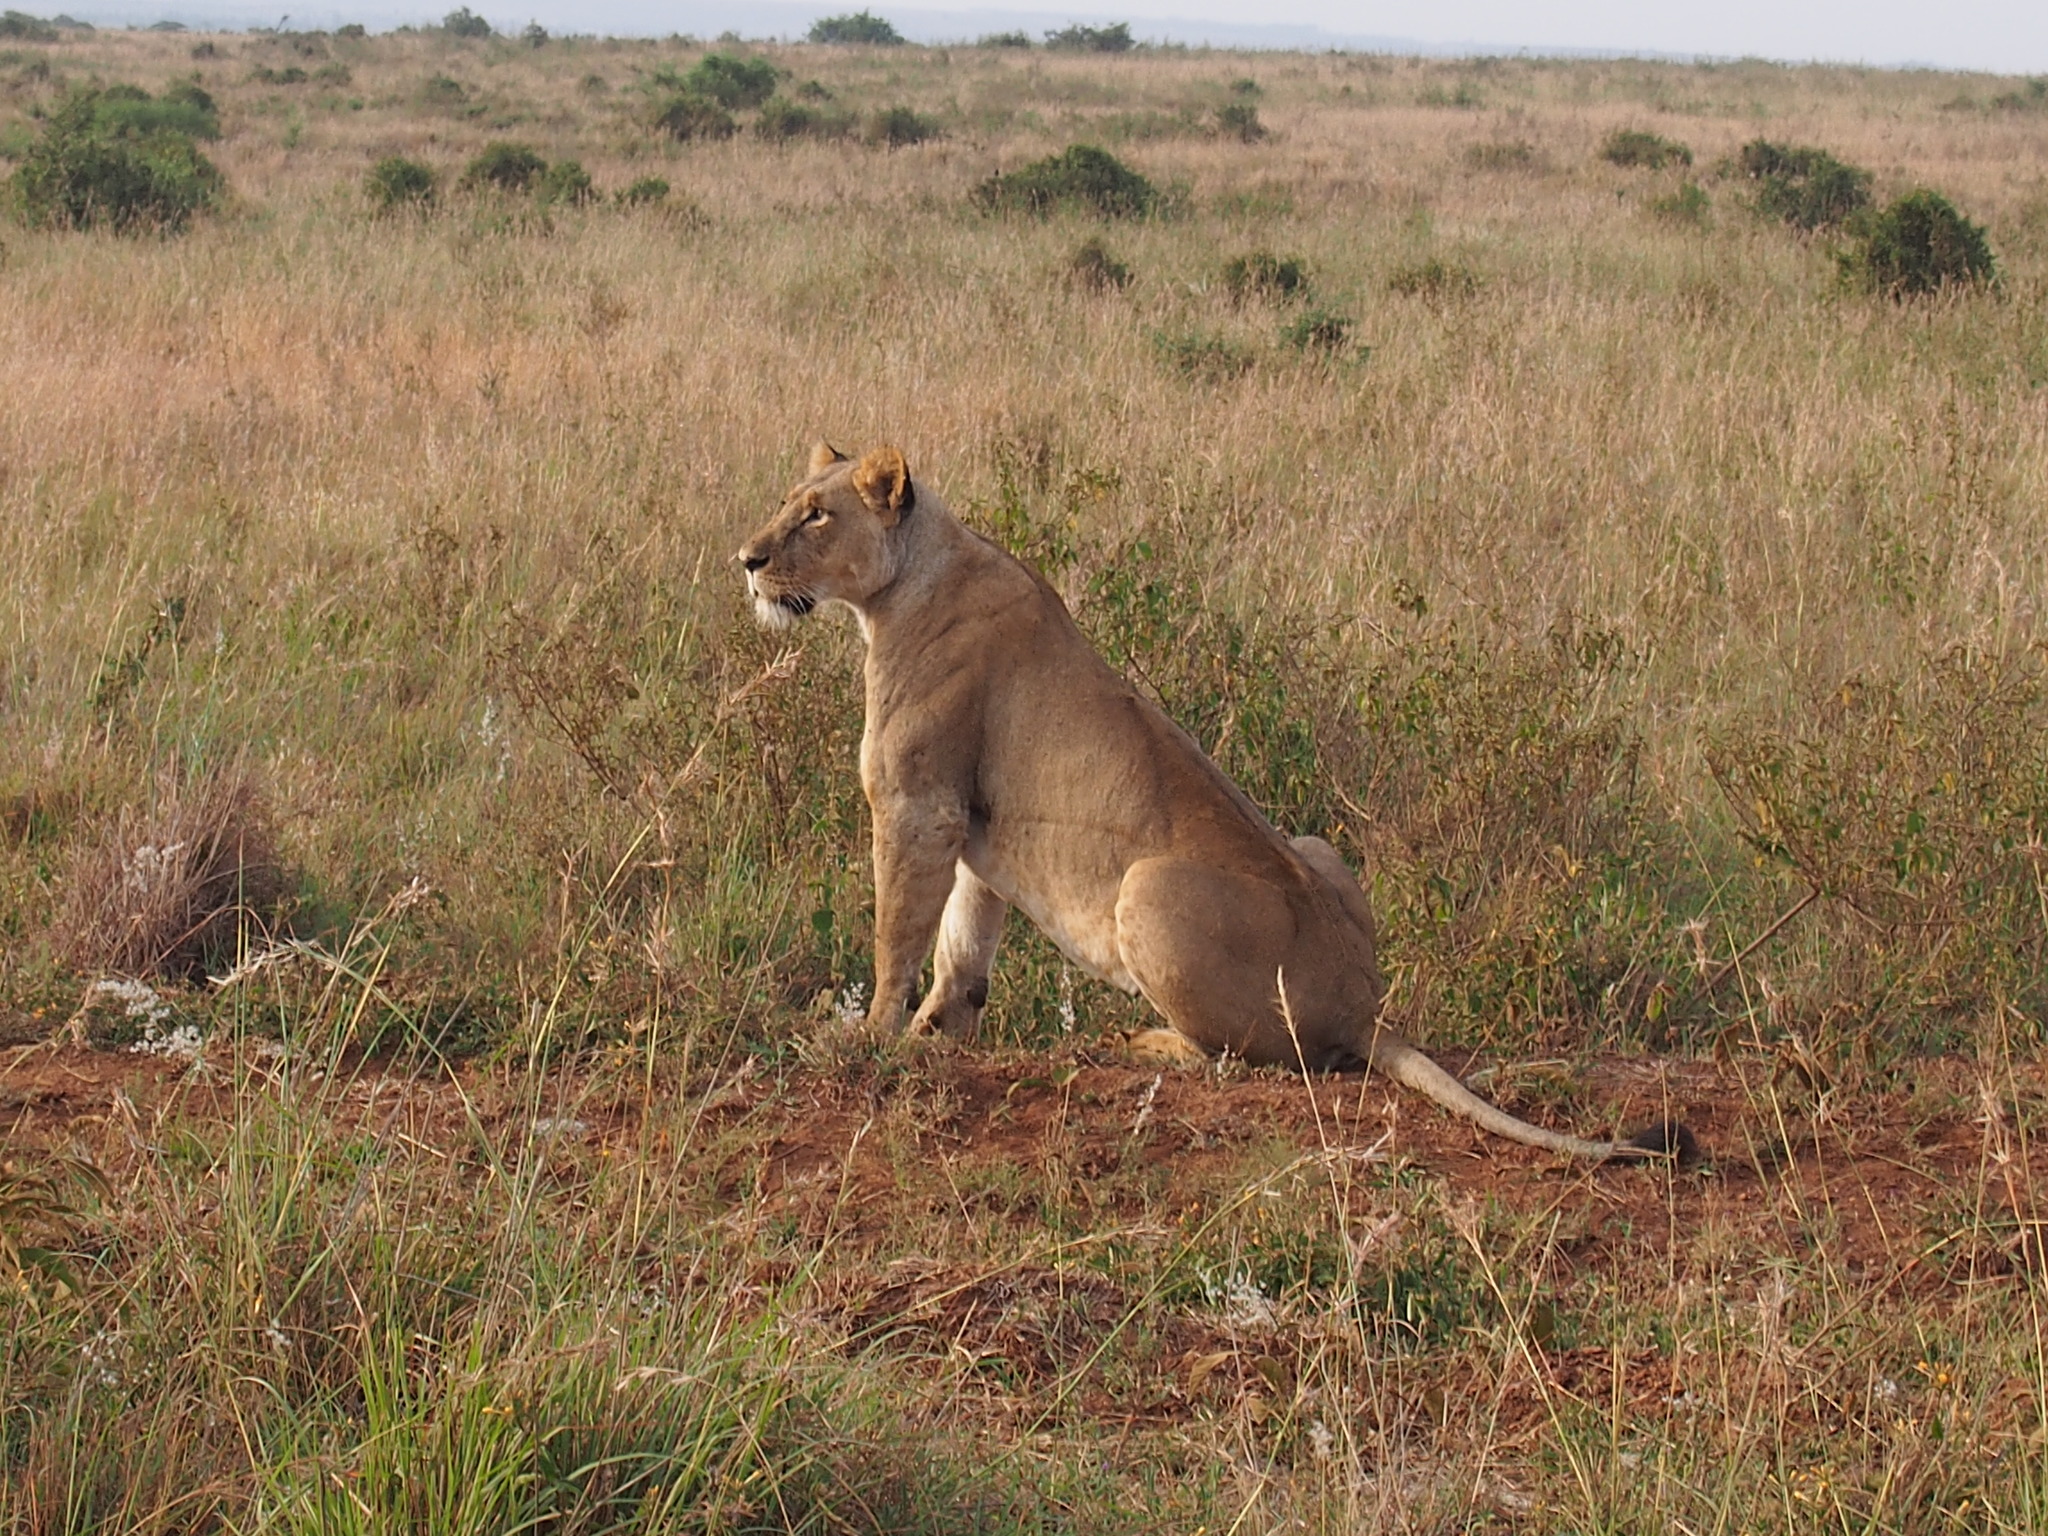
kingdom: Animalia
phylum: Chordata
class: Mammalia
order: Carnivora
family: Felidae
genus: Panthera
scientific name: Panthera leo
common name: Lion
